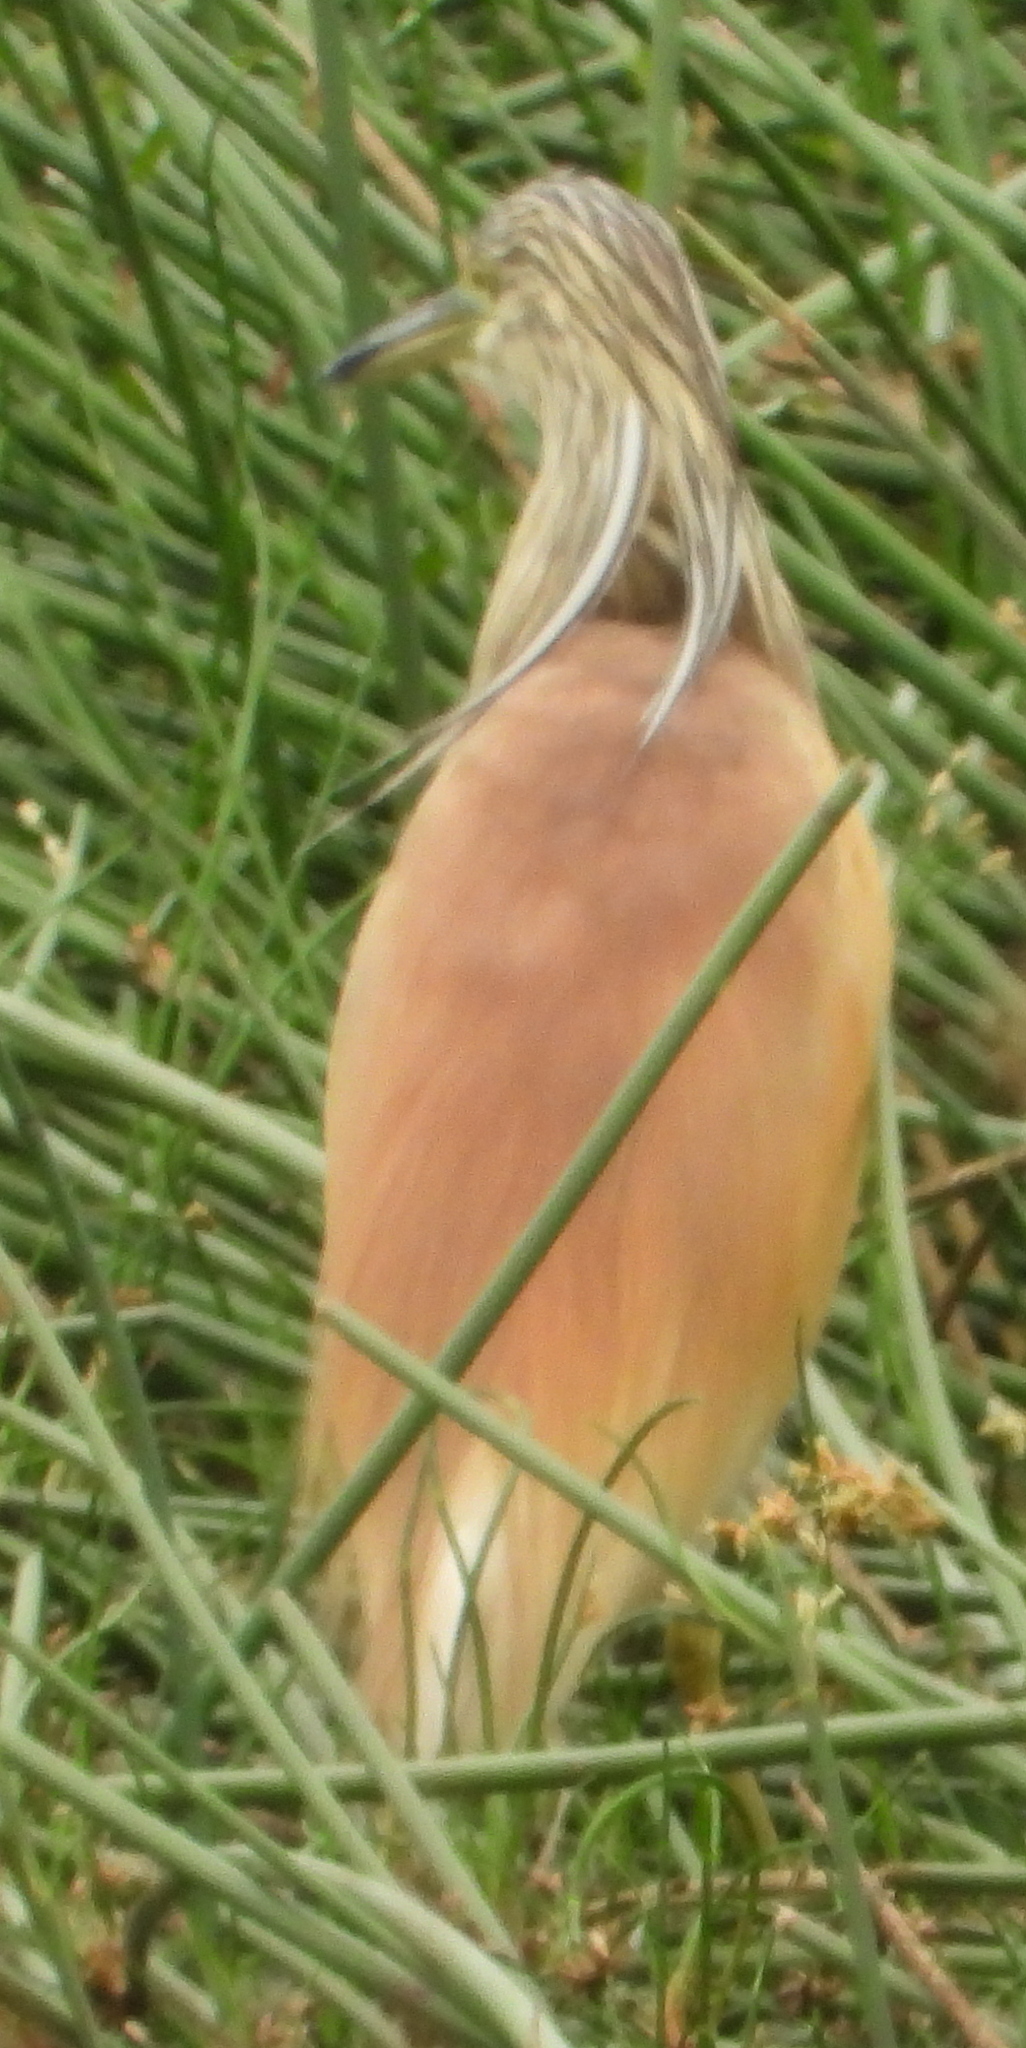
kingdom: Animalia
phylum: Chordata
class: Aves
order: Pelecaniformes
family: Ardeidae
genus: Ardeola
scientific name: Ardeola ralloides
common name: Squacco heron
